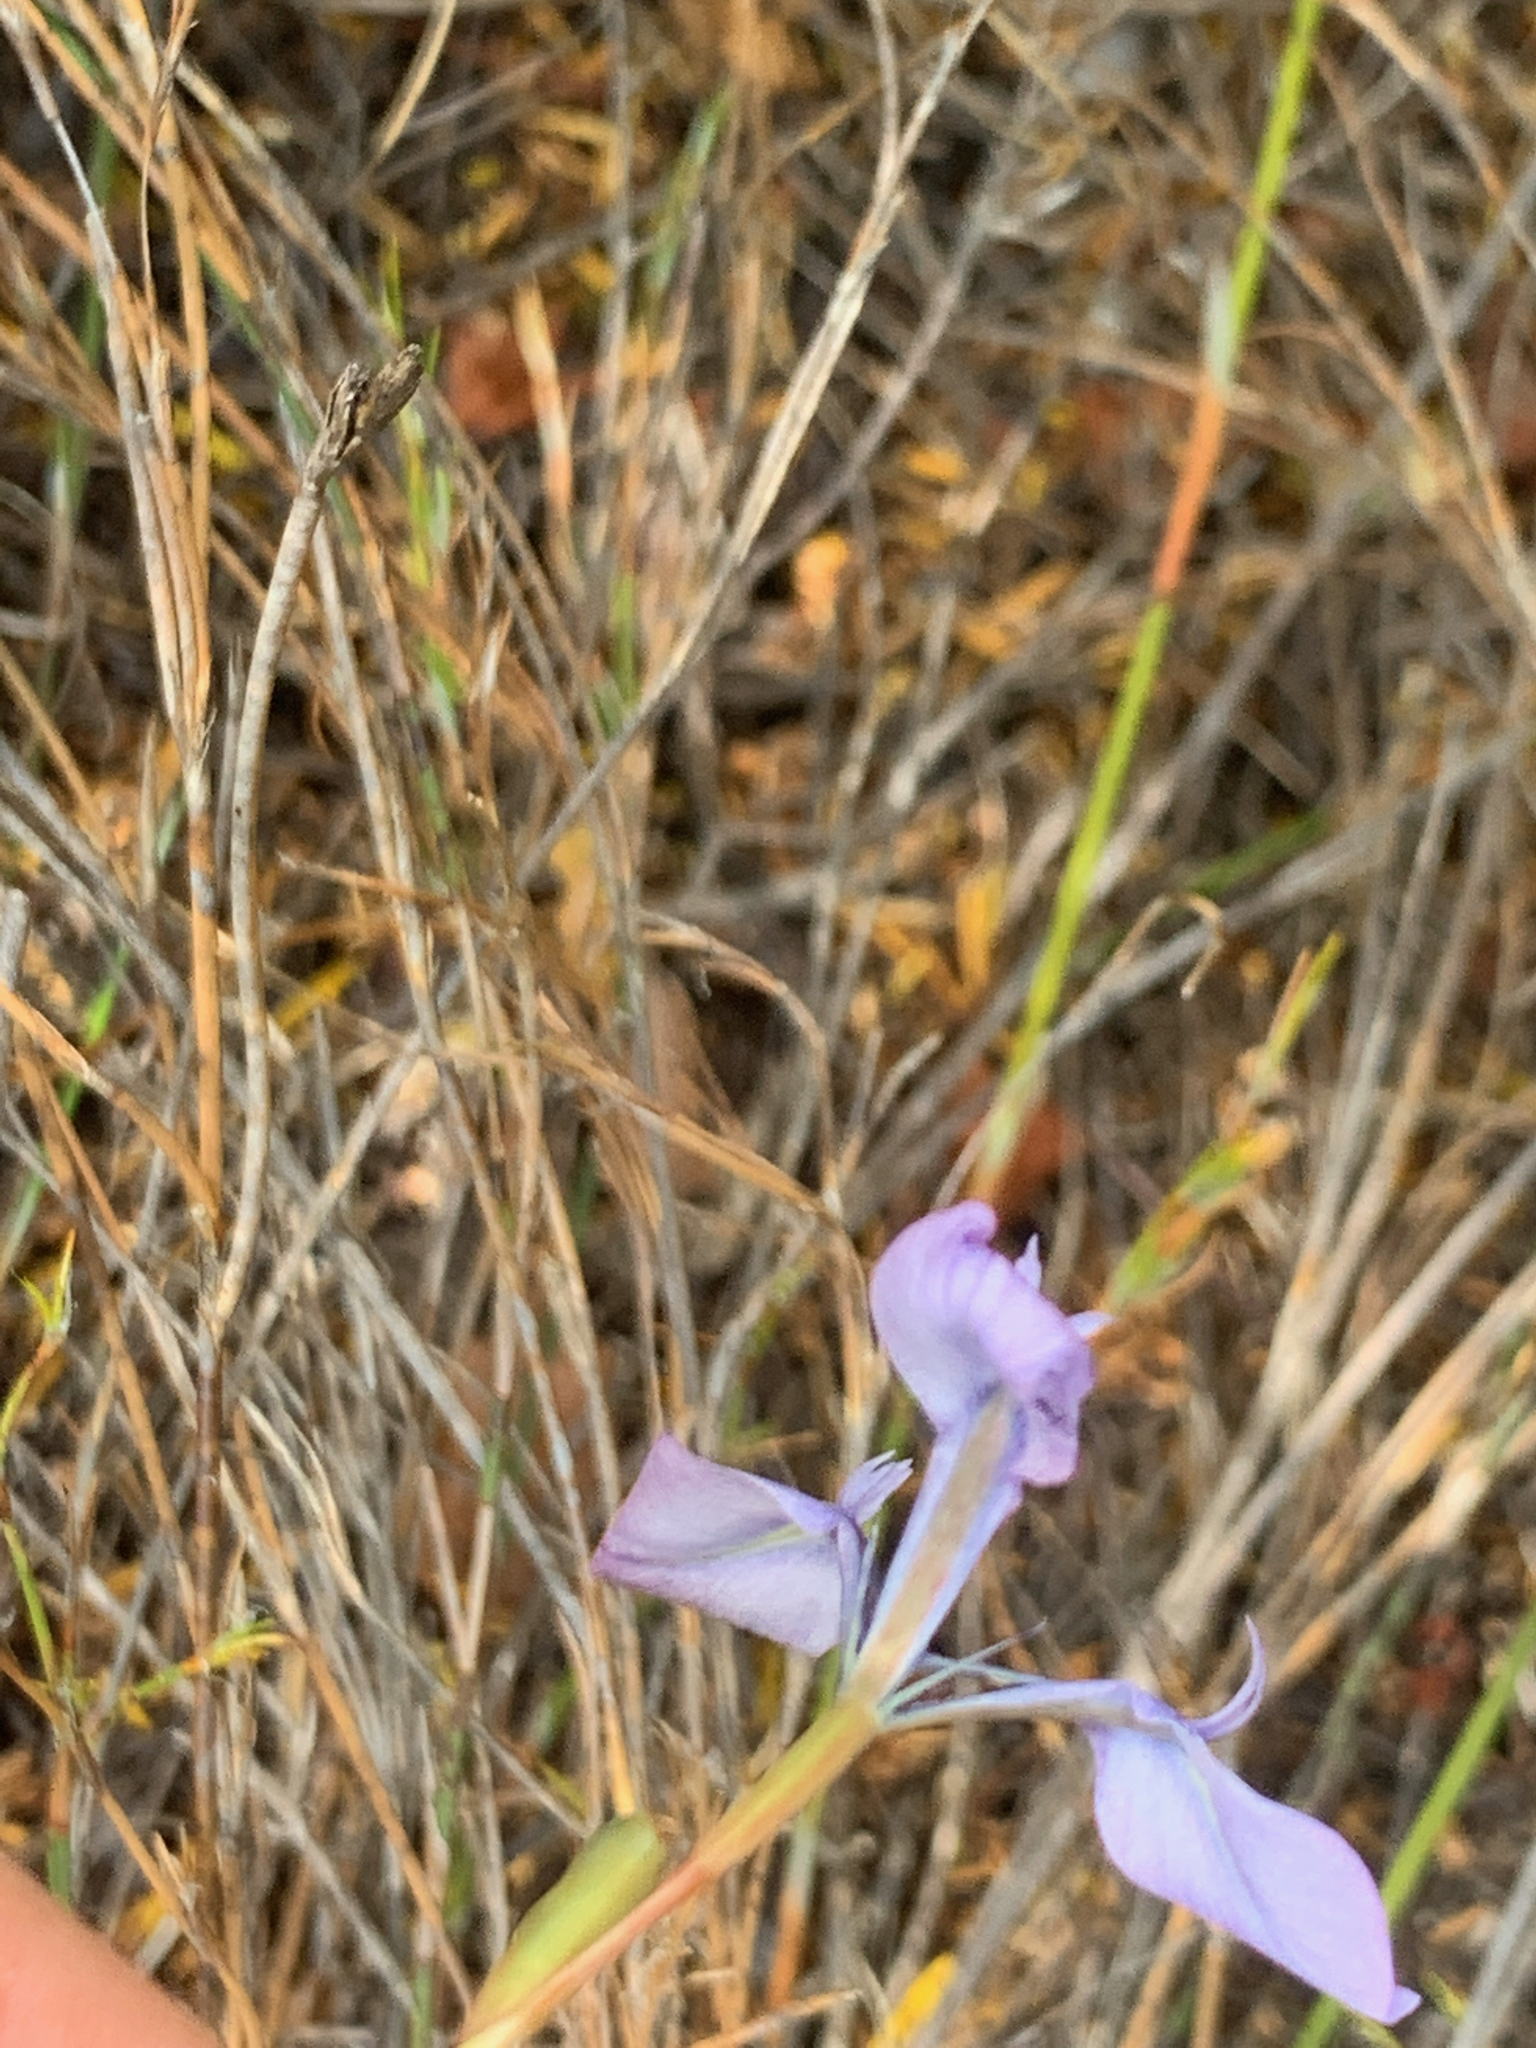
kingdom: Plantae
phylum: Tracheophyta
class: Liliopsida
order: Asparagales
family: Iridaceae
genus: Moraea
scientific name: Moraea tripetala
